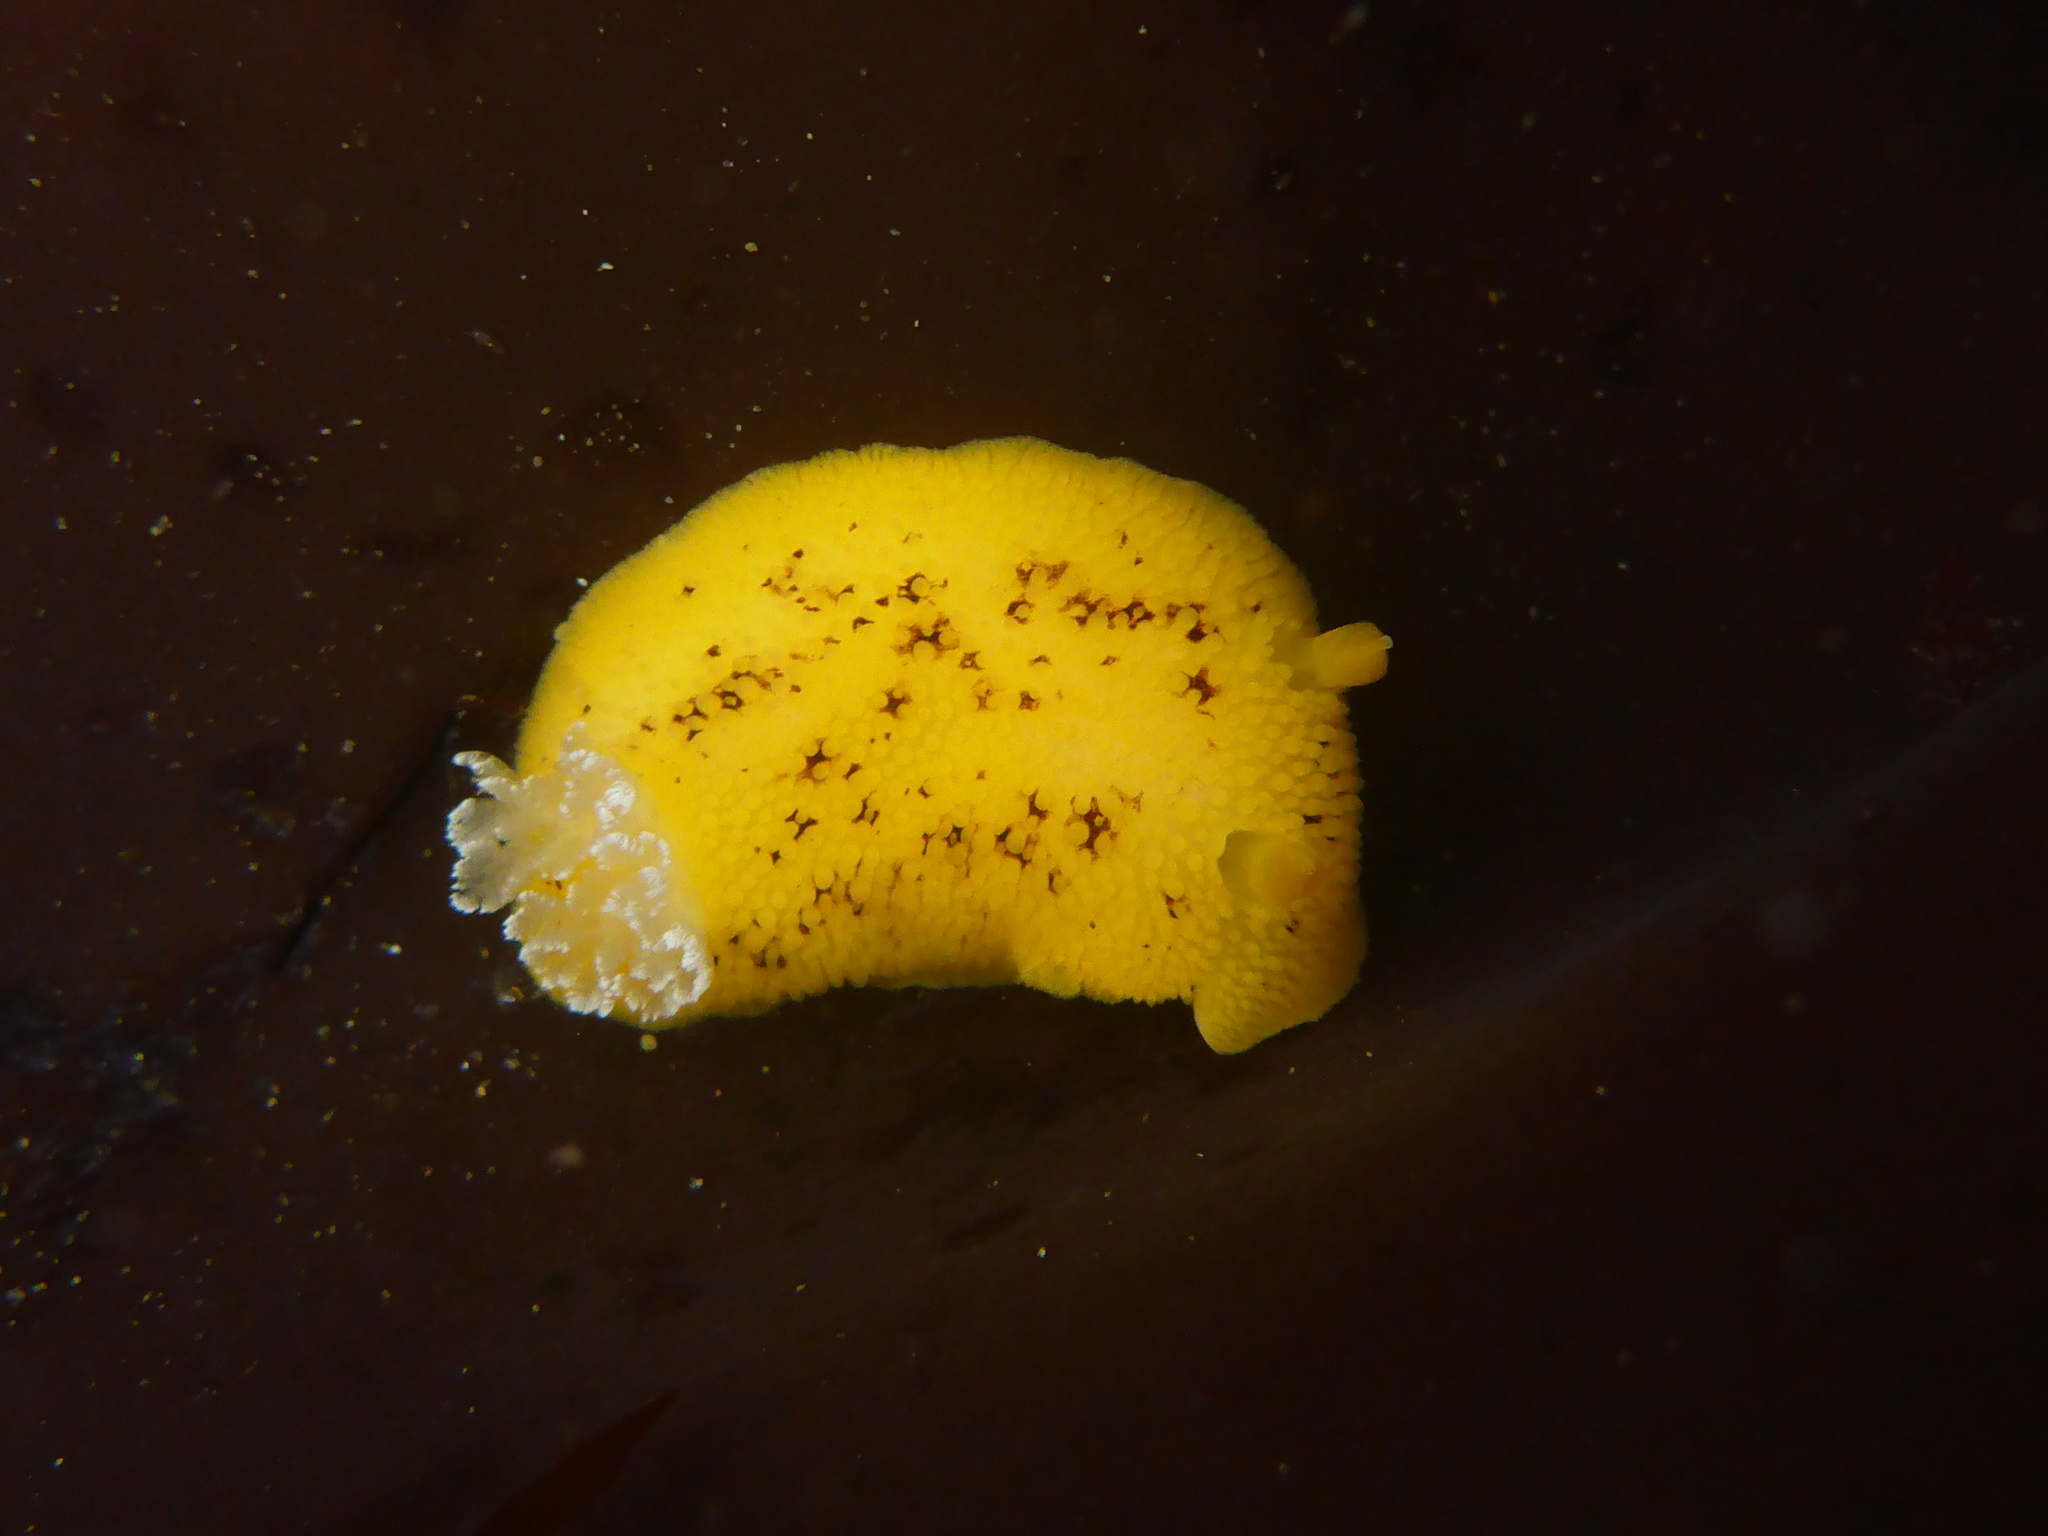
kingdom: Animalia
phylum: Mollusca
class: Gastropoda
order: Nudibranchia
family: Discodorididae
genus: Peltodoris
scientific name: Peltodoris nobilis
